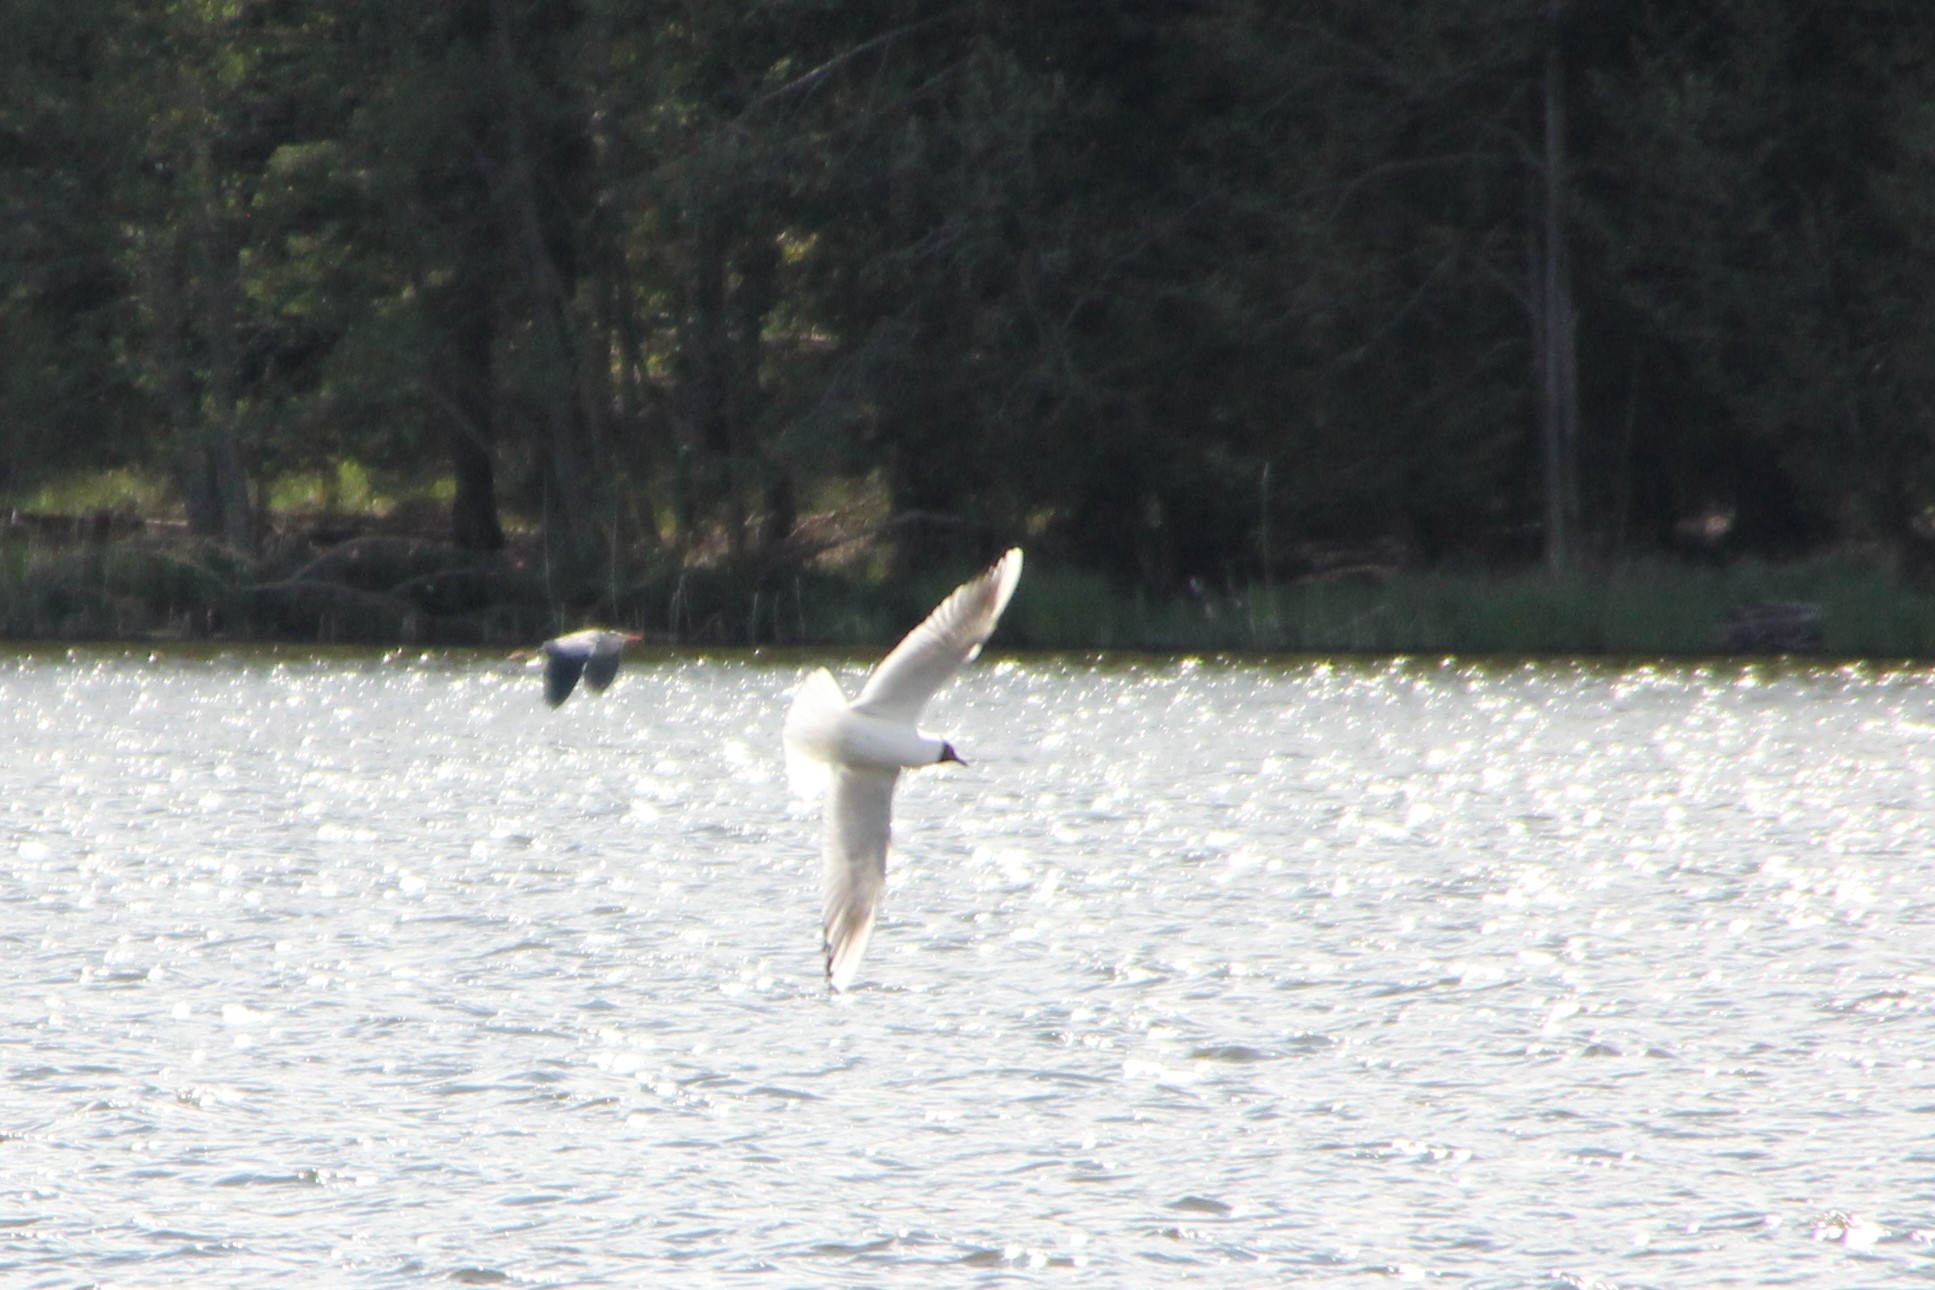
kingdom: Animalia
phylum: Chordata
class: Aves
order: Charadriiformes
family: Laridae
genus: Chroicocephalus
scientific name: Chroicocephalus ridibundus
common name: Black-headed gull
